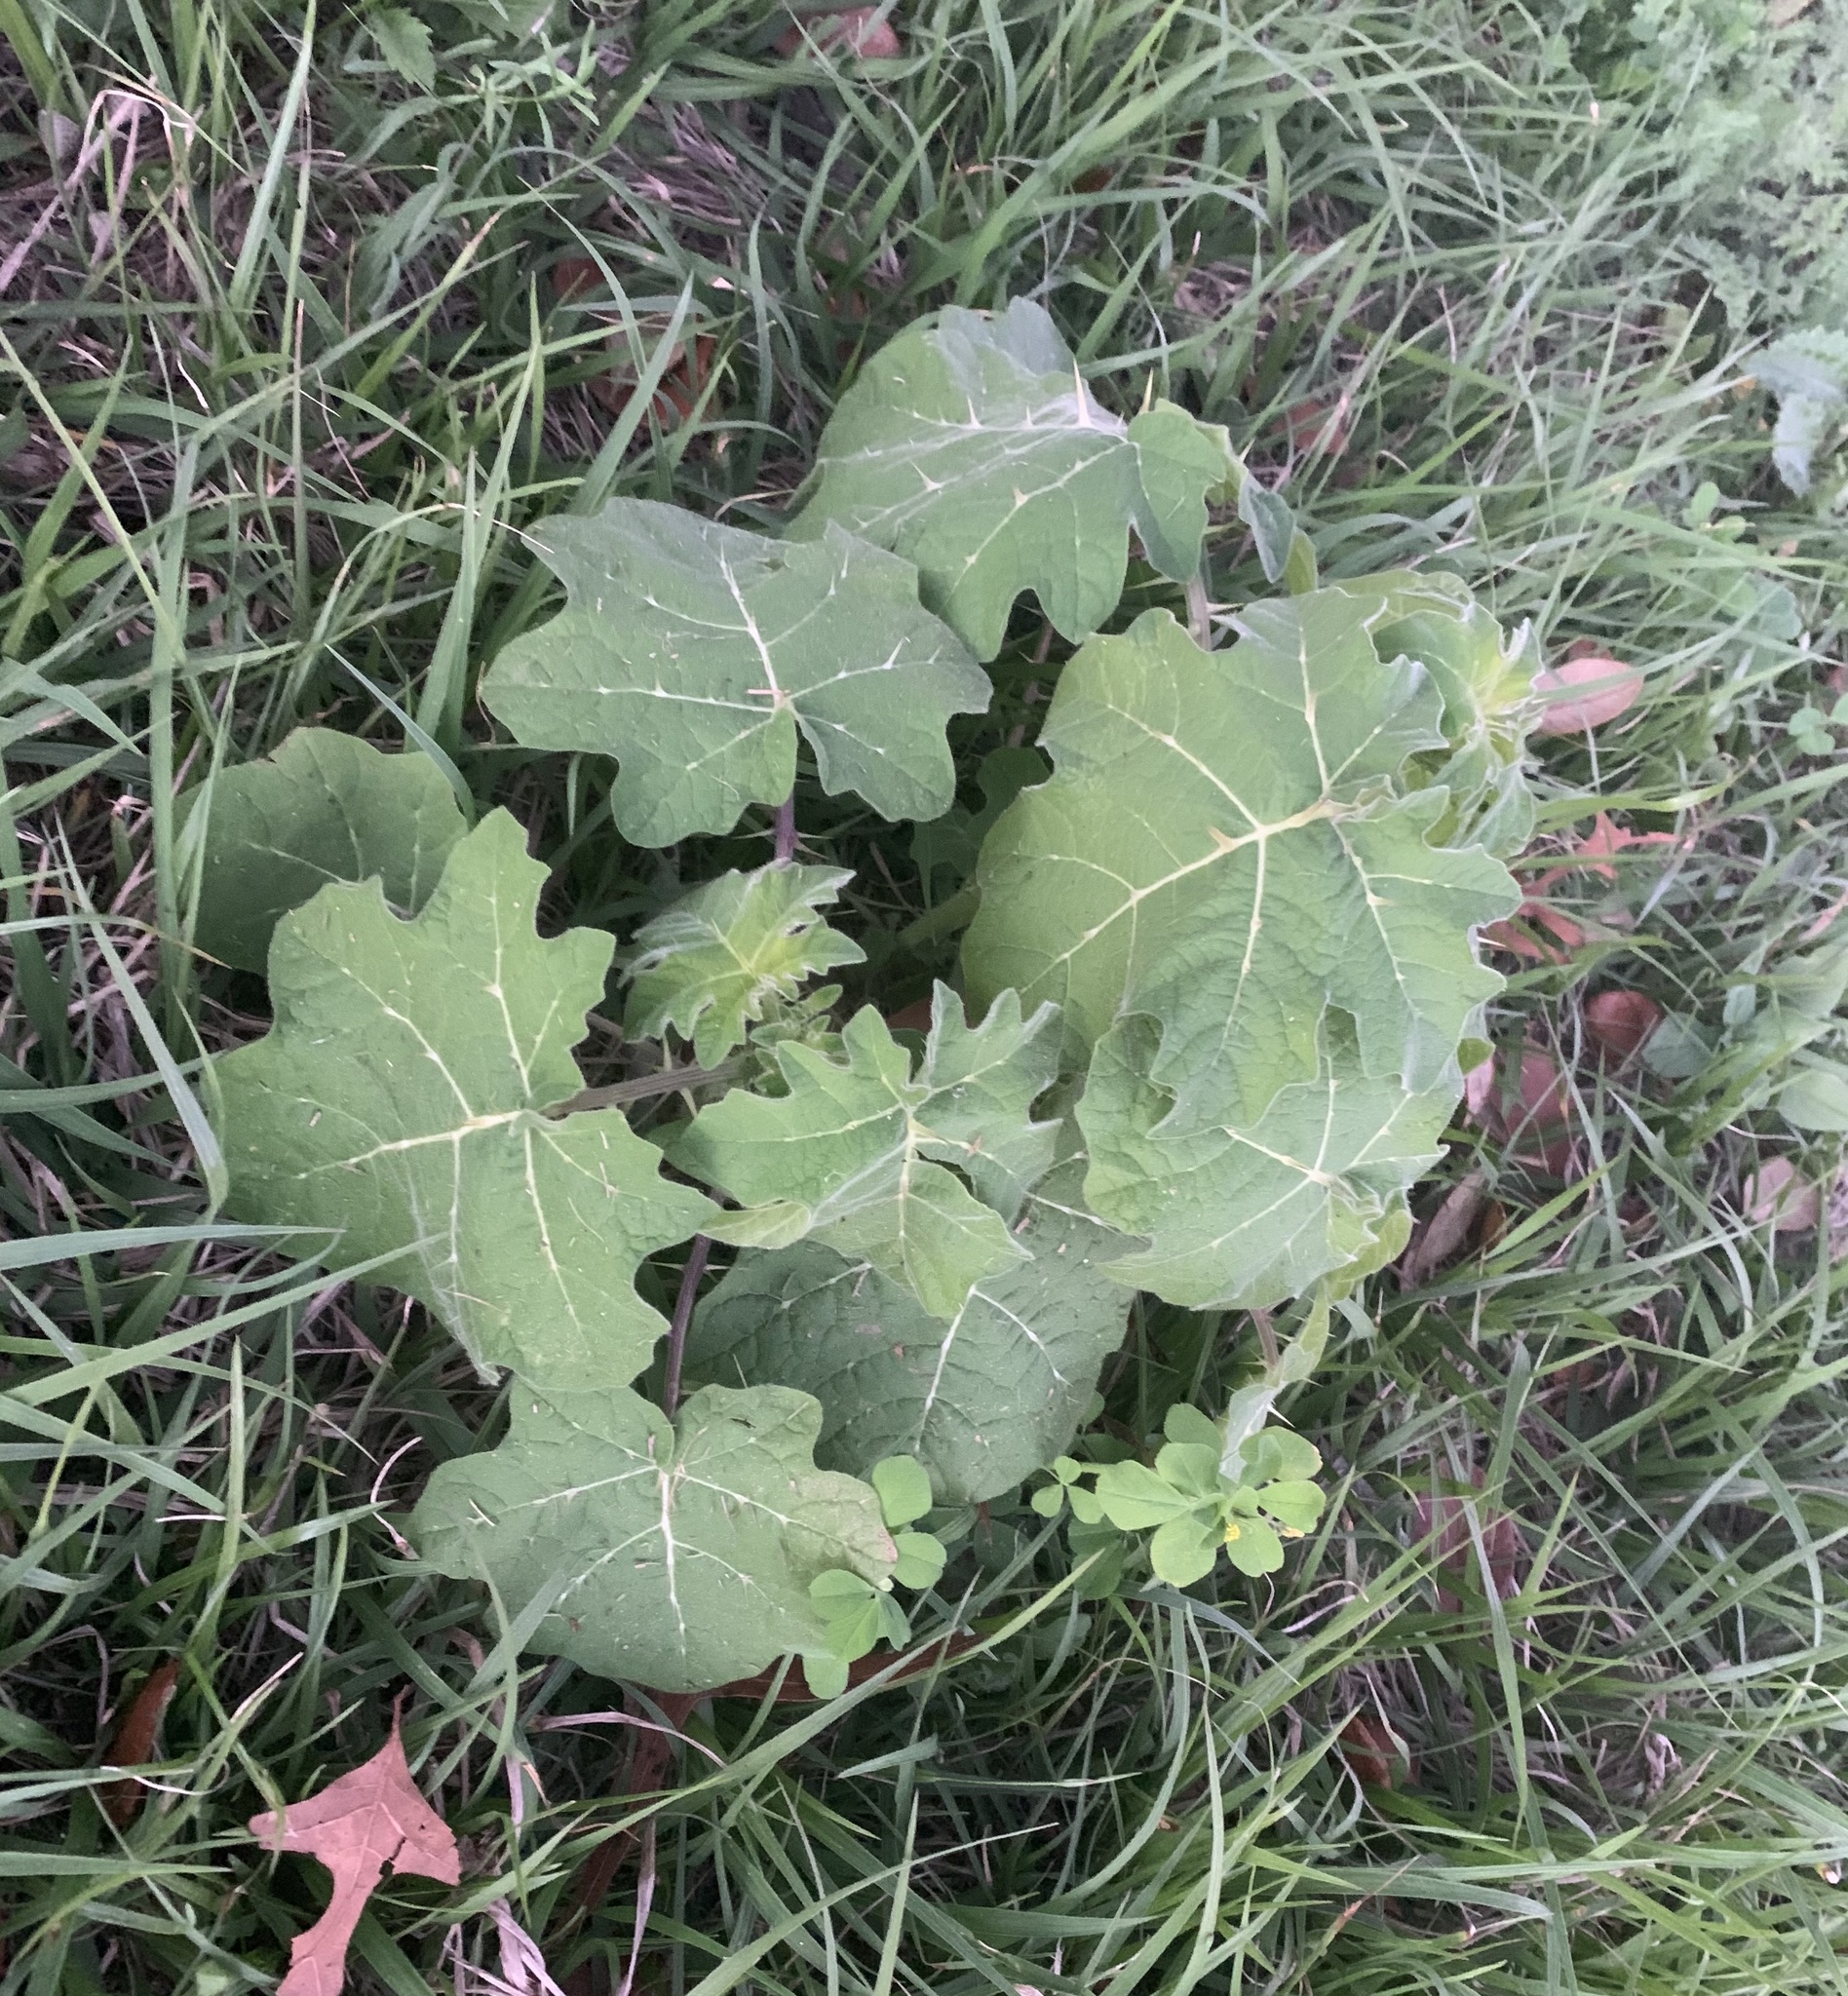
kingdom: Plantae
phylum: Tracheophyta
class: Magnoliopsida
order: Solanales
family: Solanaceae
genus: Solanum
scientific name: Solanum viarum
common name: Tropical soda apple
